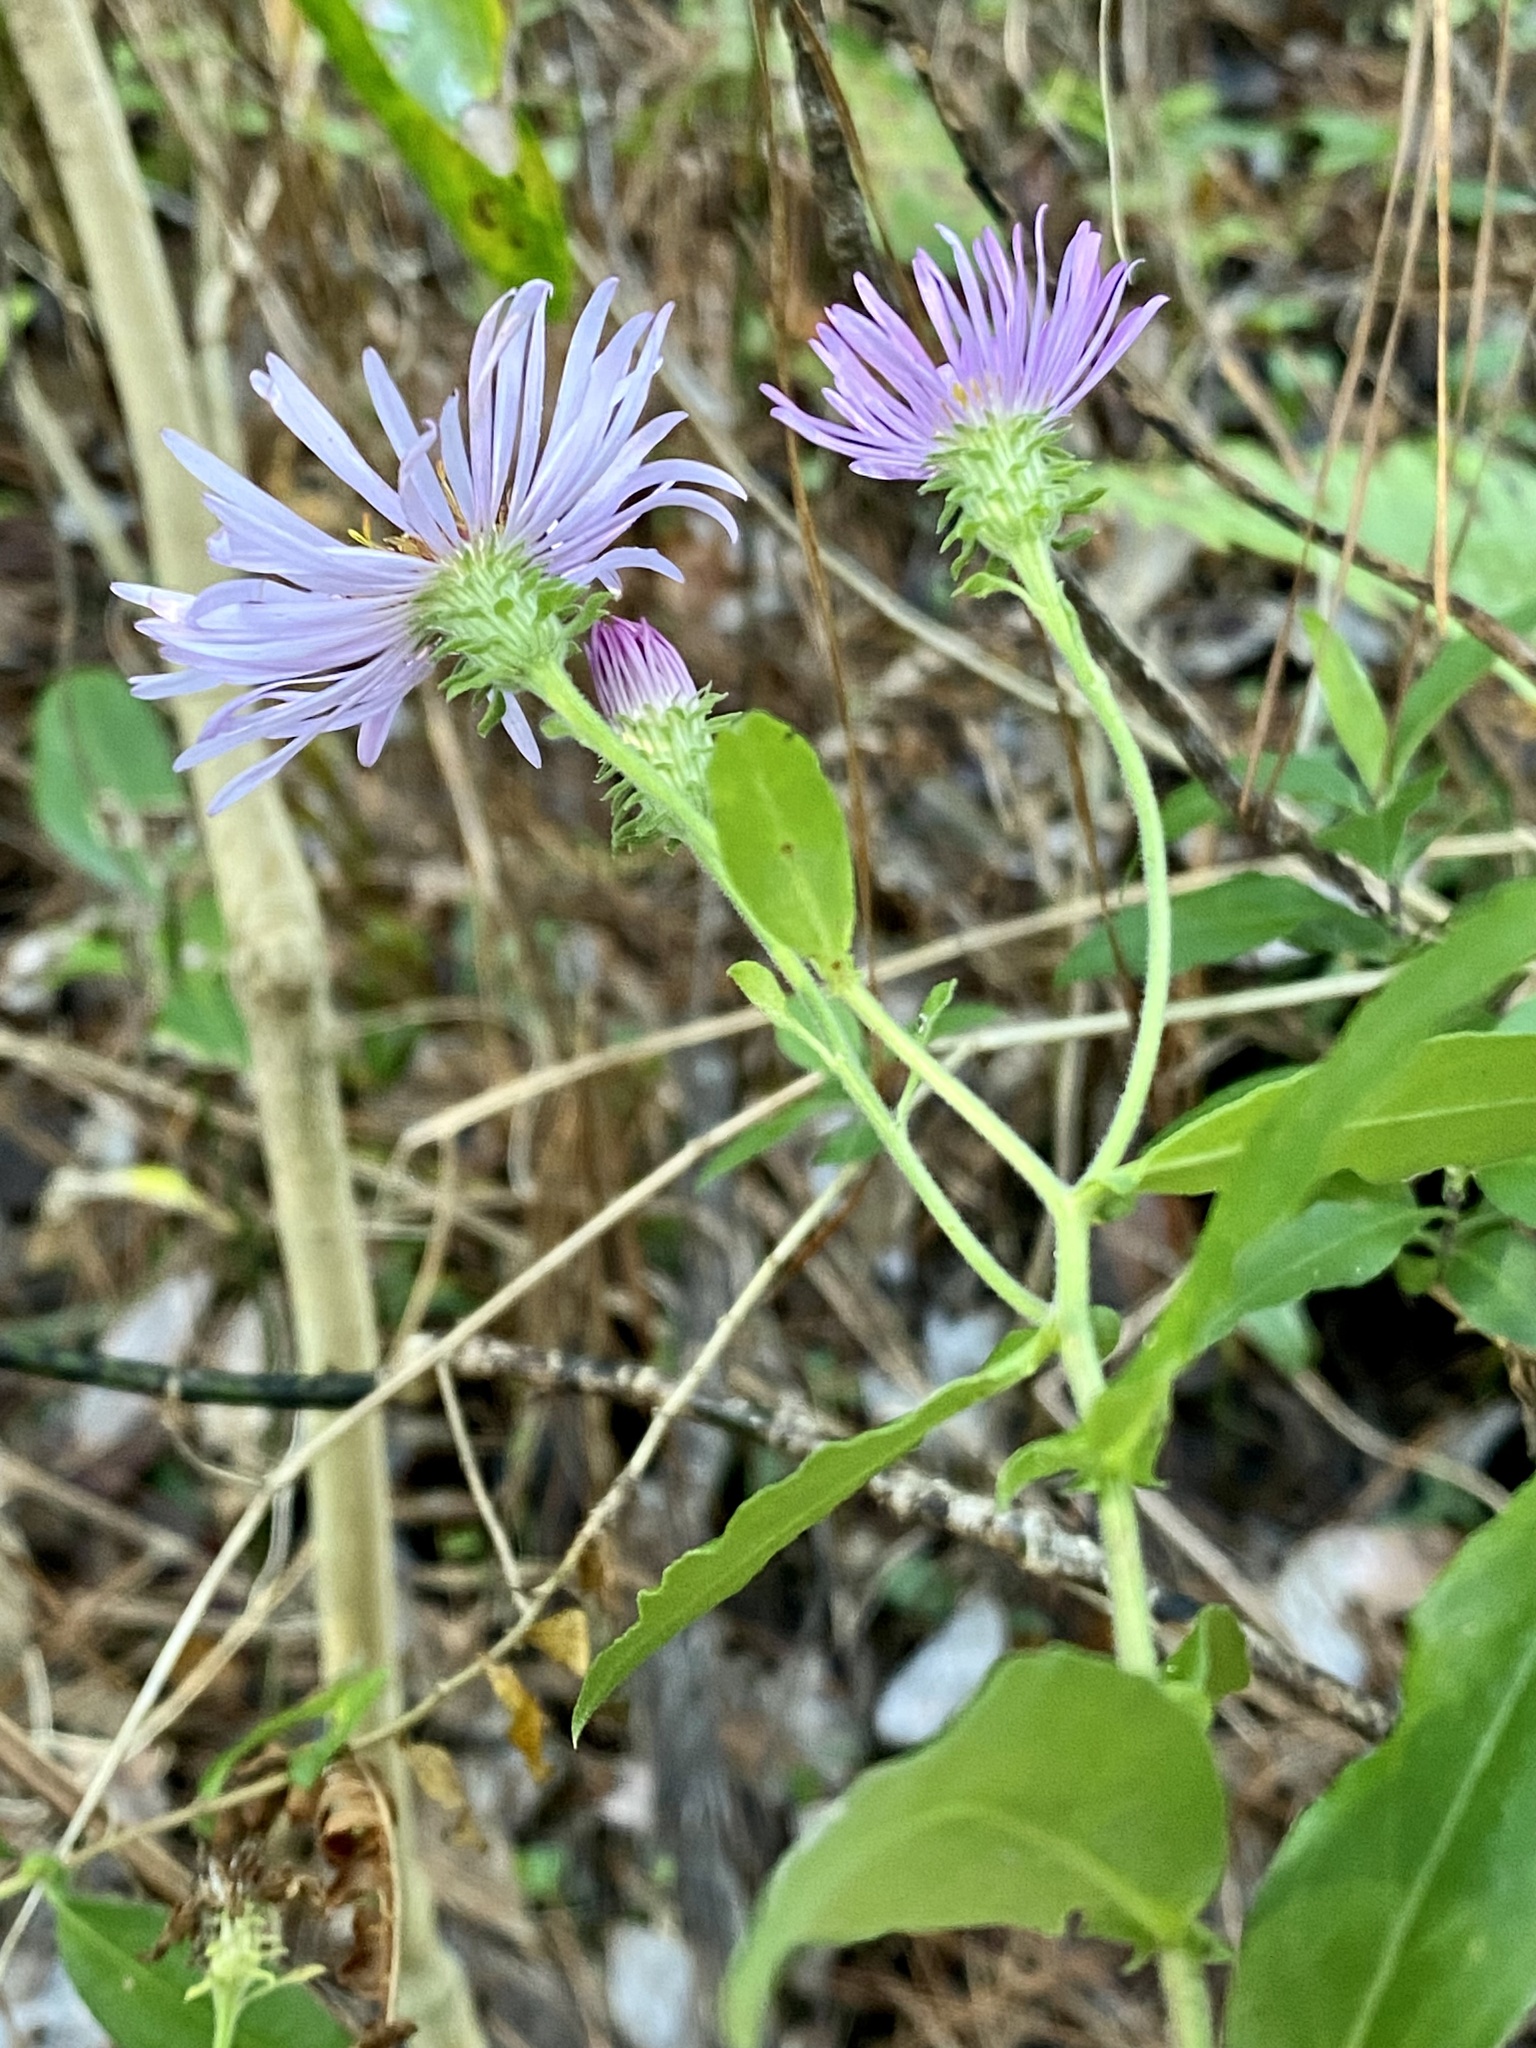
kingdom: Plantae
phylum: Tracheophyta
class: Magnoliopsida
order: Asterales
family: Asteraceae
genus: Ampelaster
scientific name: Ampelaster carolinianus
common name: Climbing aster
